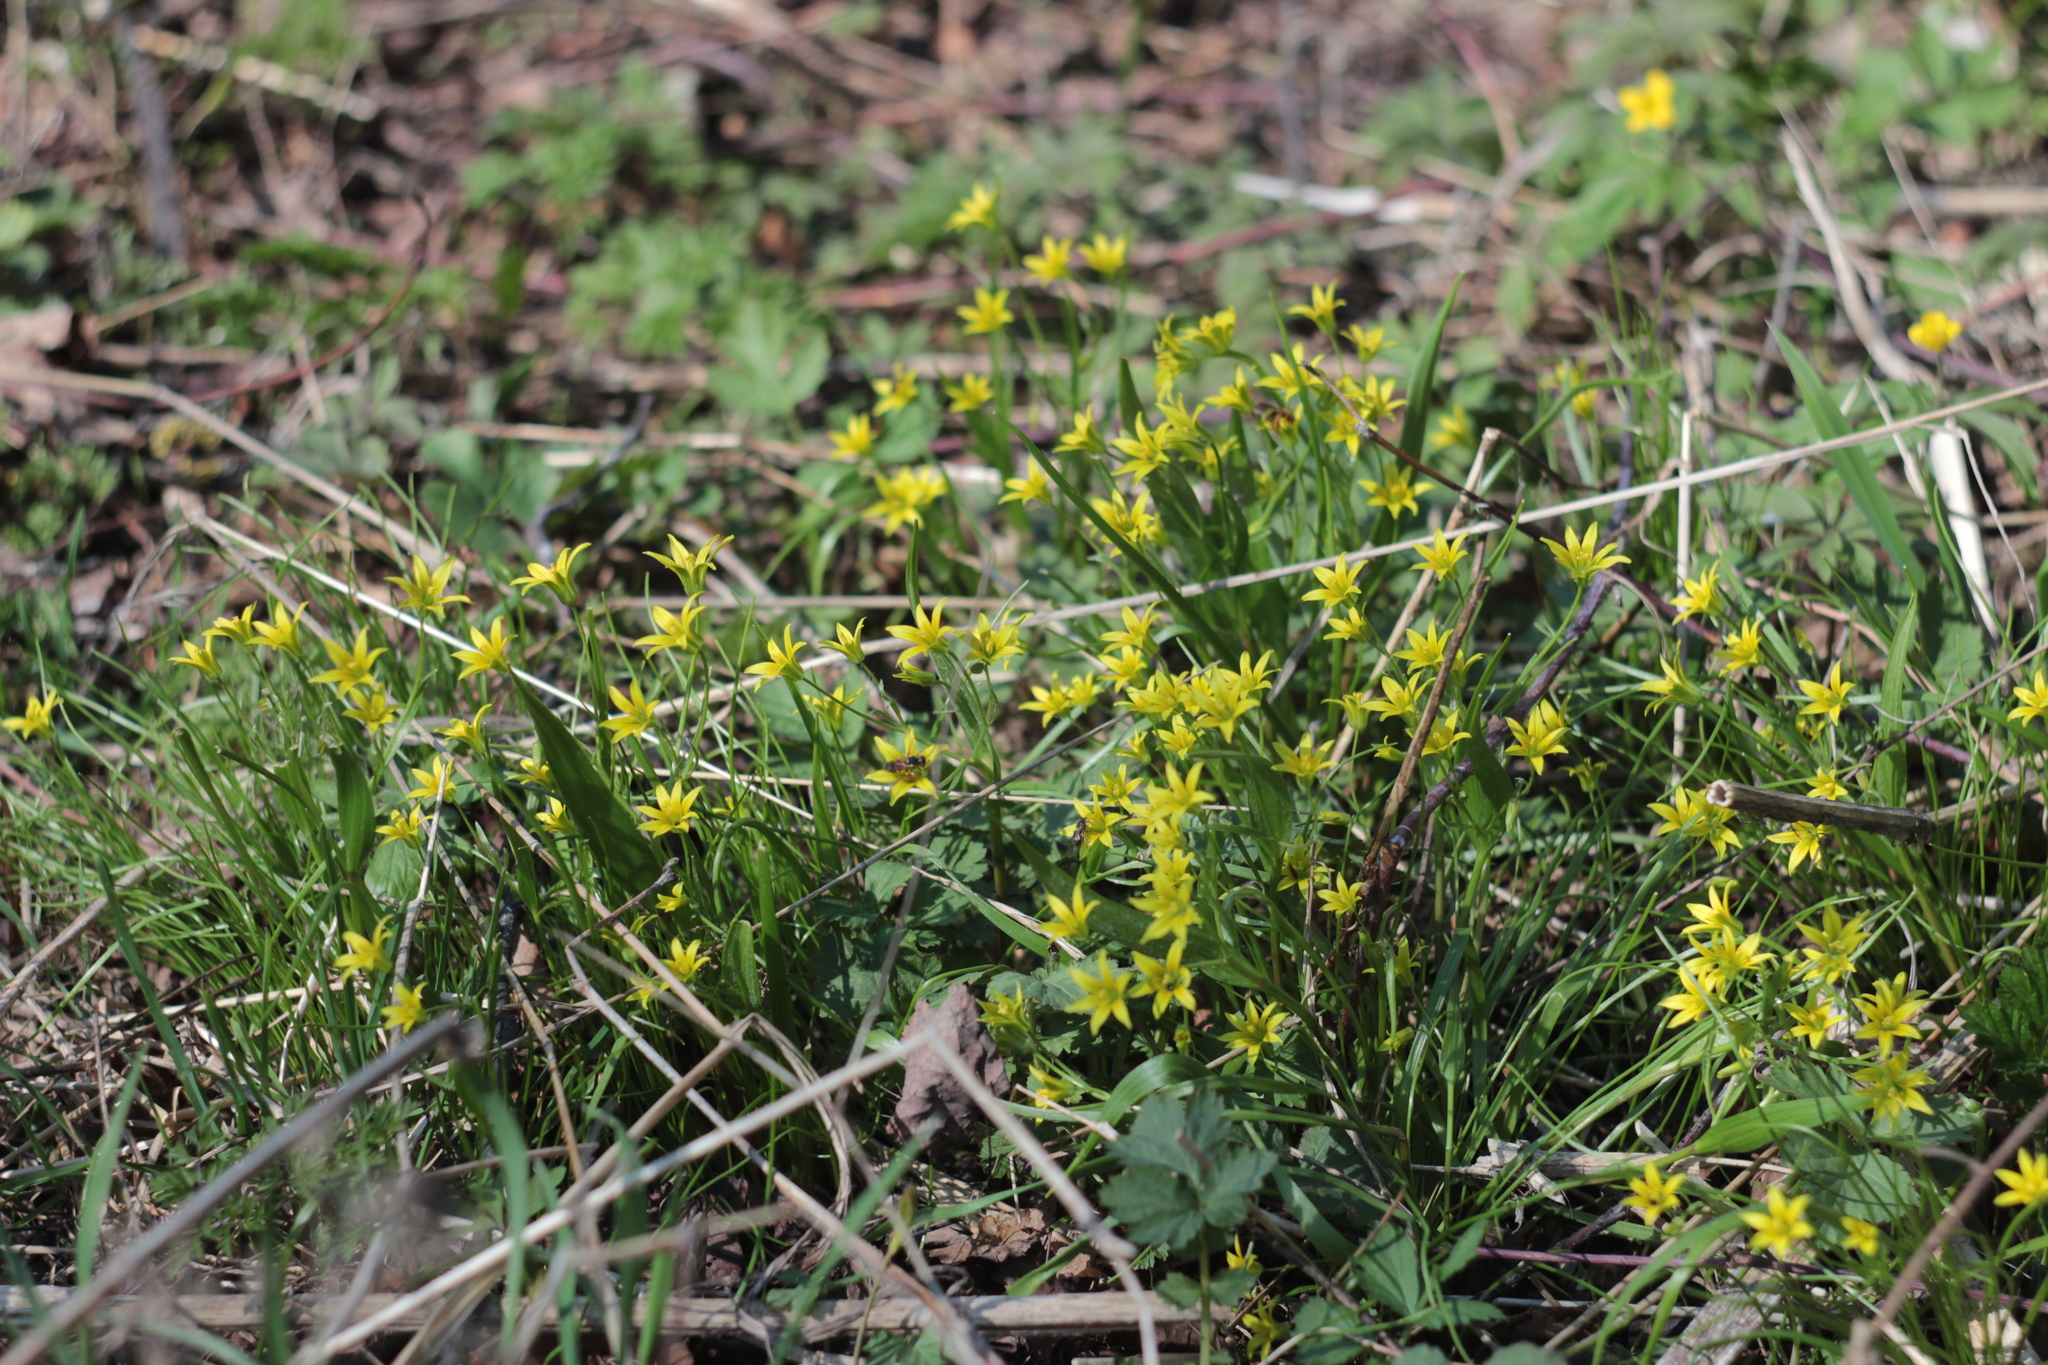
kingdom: Plantae
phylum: Tracheophyta
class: Liliopsida
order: Liliales
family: Liliaceae
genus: Gagea
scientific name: Gagea minima
